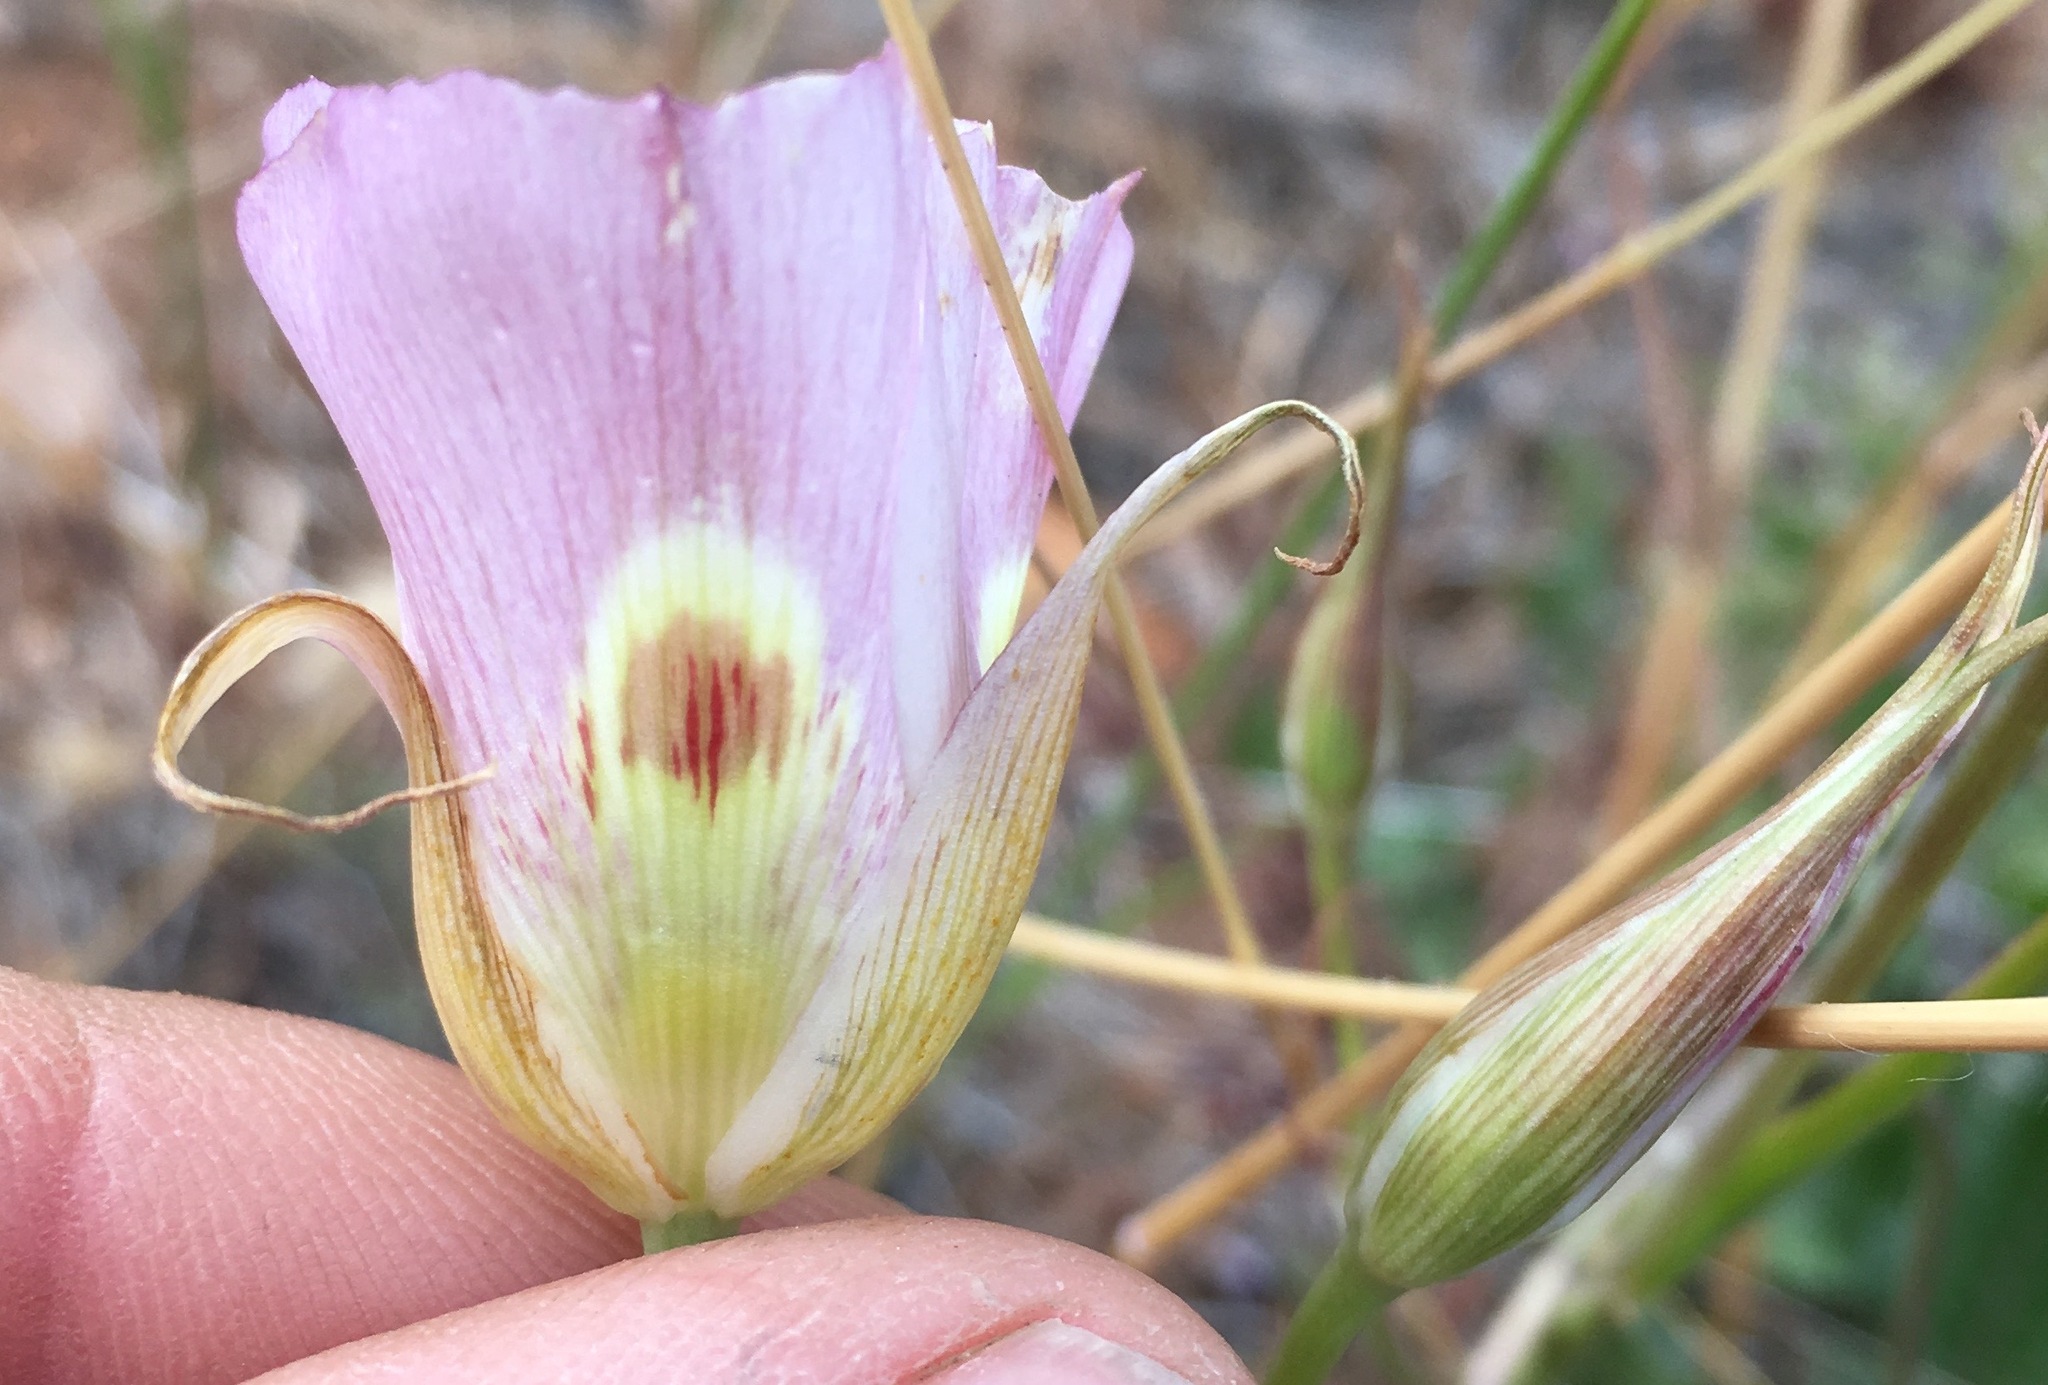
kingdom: Plantae
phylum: Tracheophyta
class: Liliopsida
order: Liliales
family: Liliaceae
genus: Calochortus
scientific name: Calochortus superbus
